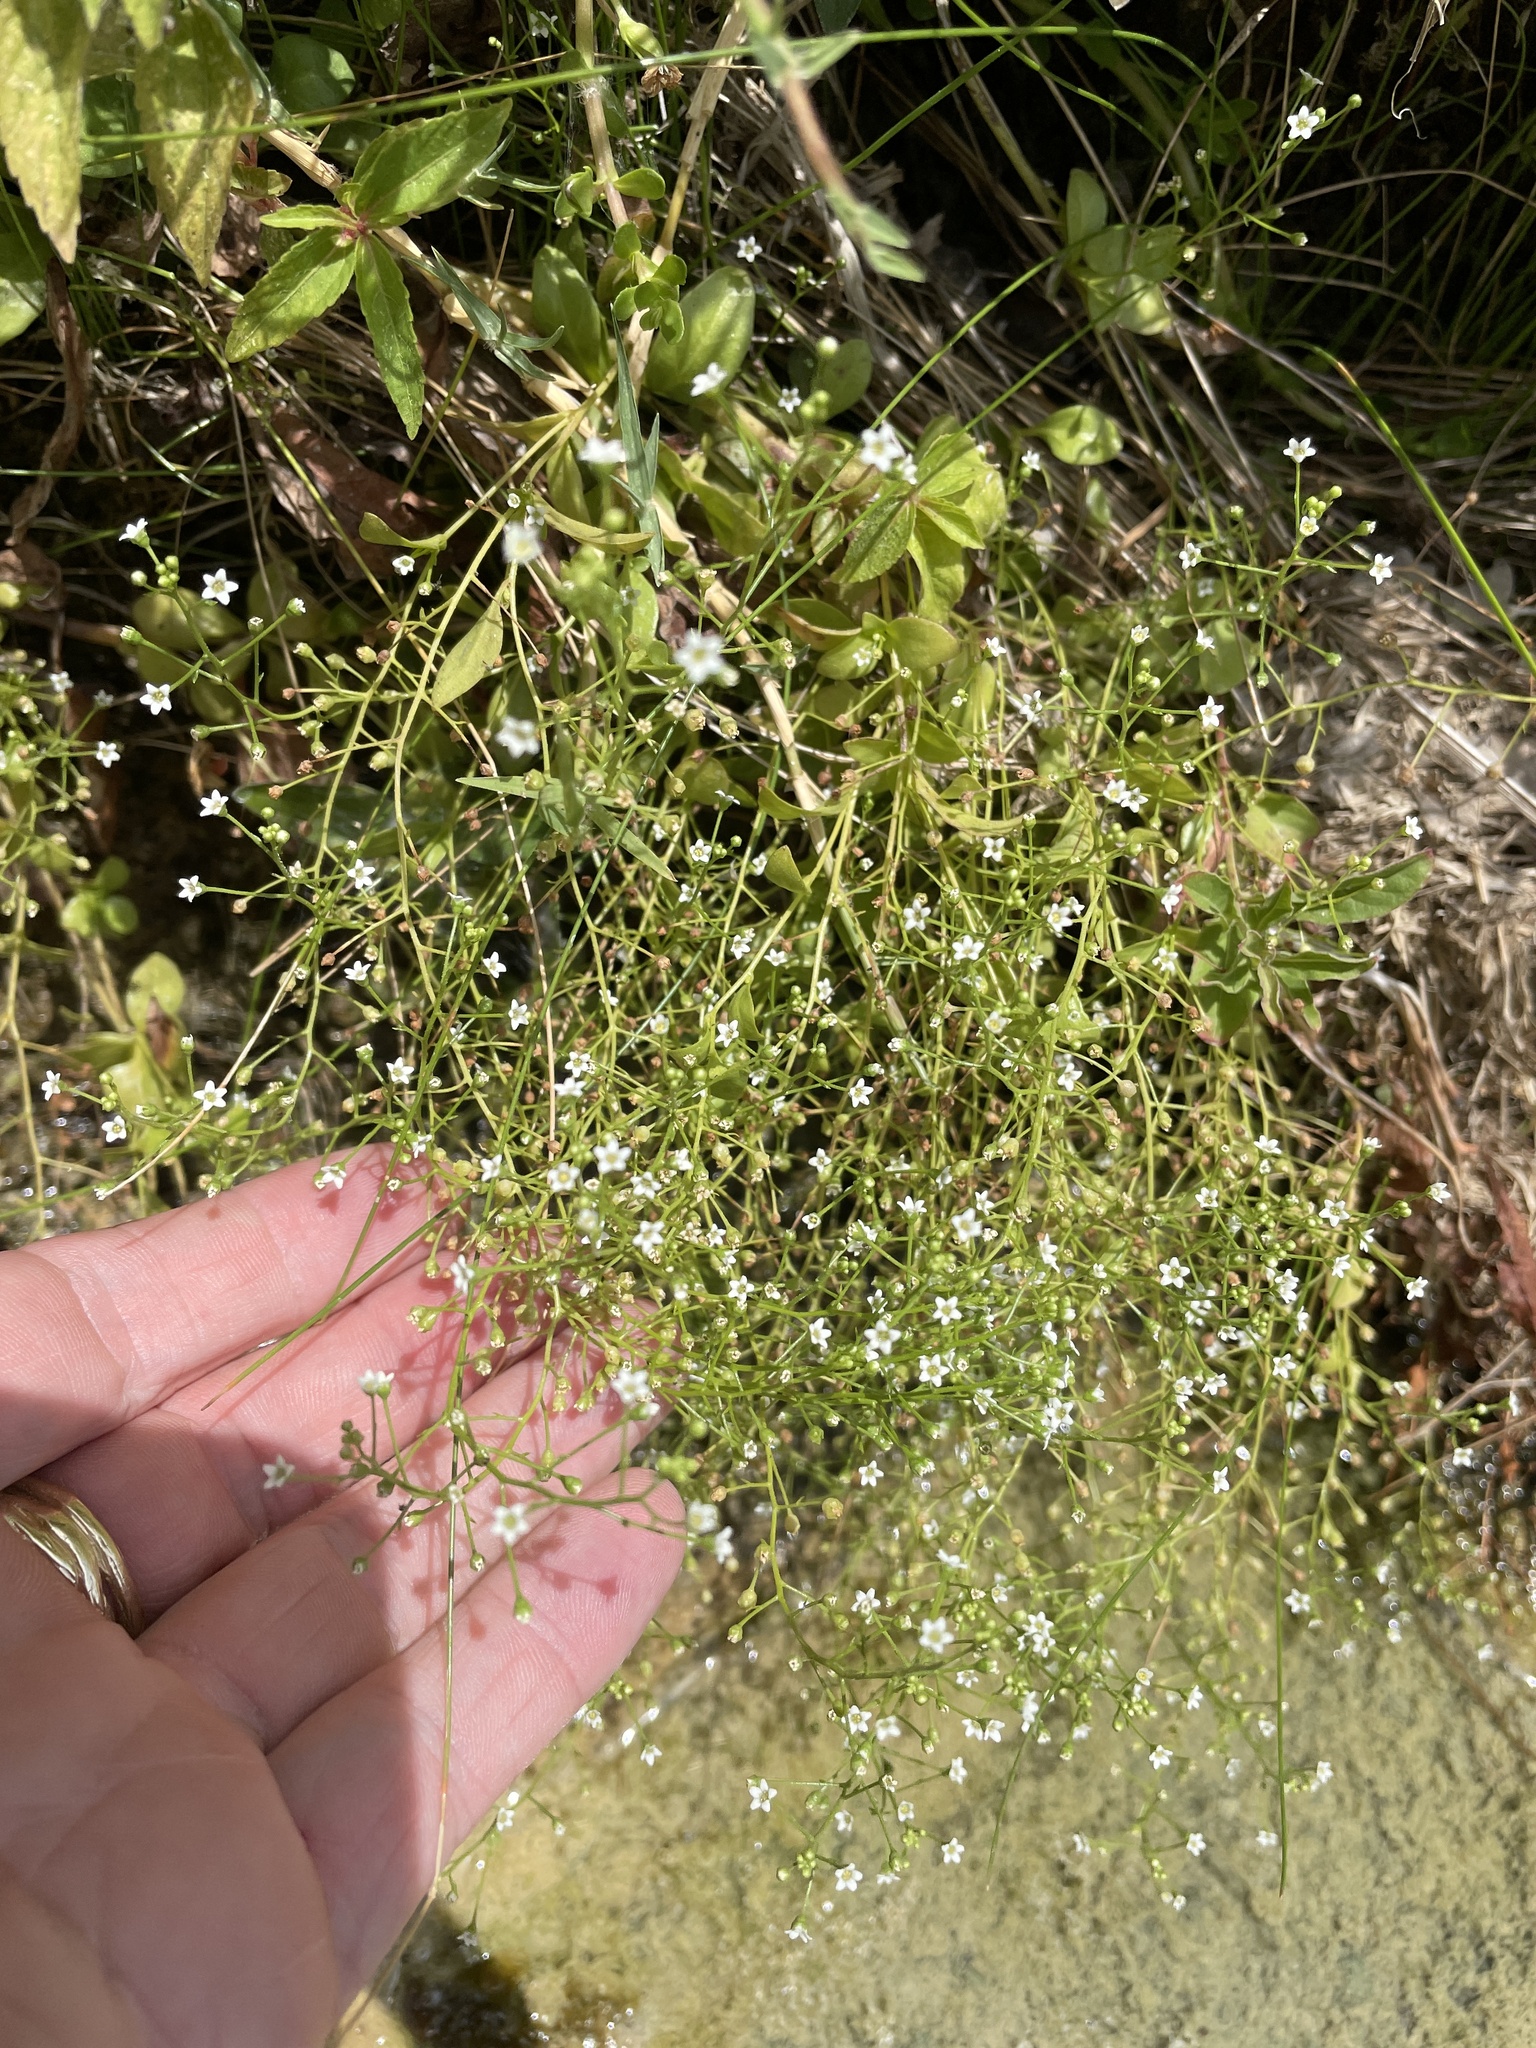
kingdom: Plantae
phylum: Tracheophyta
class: Magnoliopsida
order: Ericales
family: Primulaceae
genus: Samolus
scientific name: Samolus parviflorus
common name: False water pimpernel
